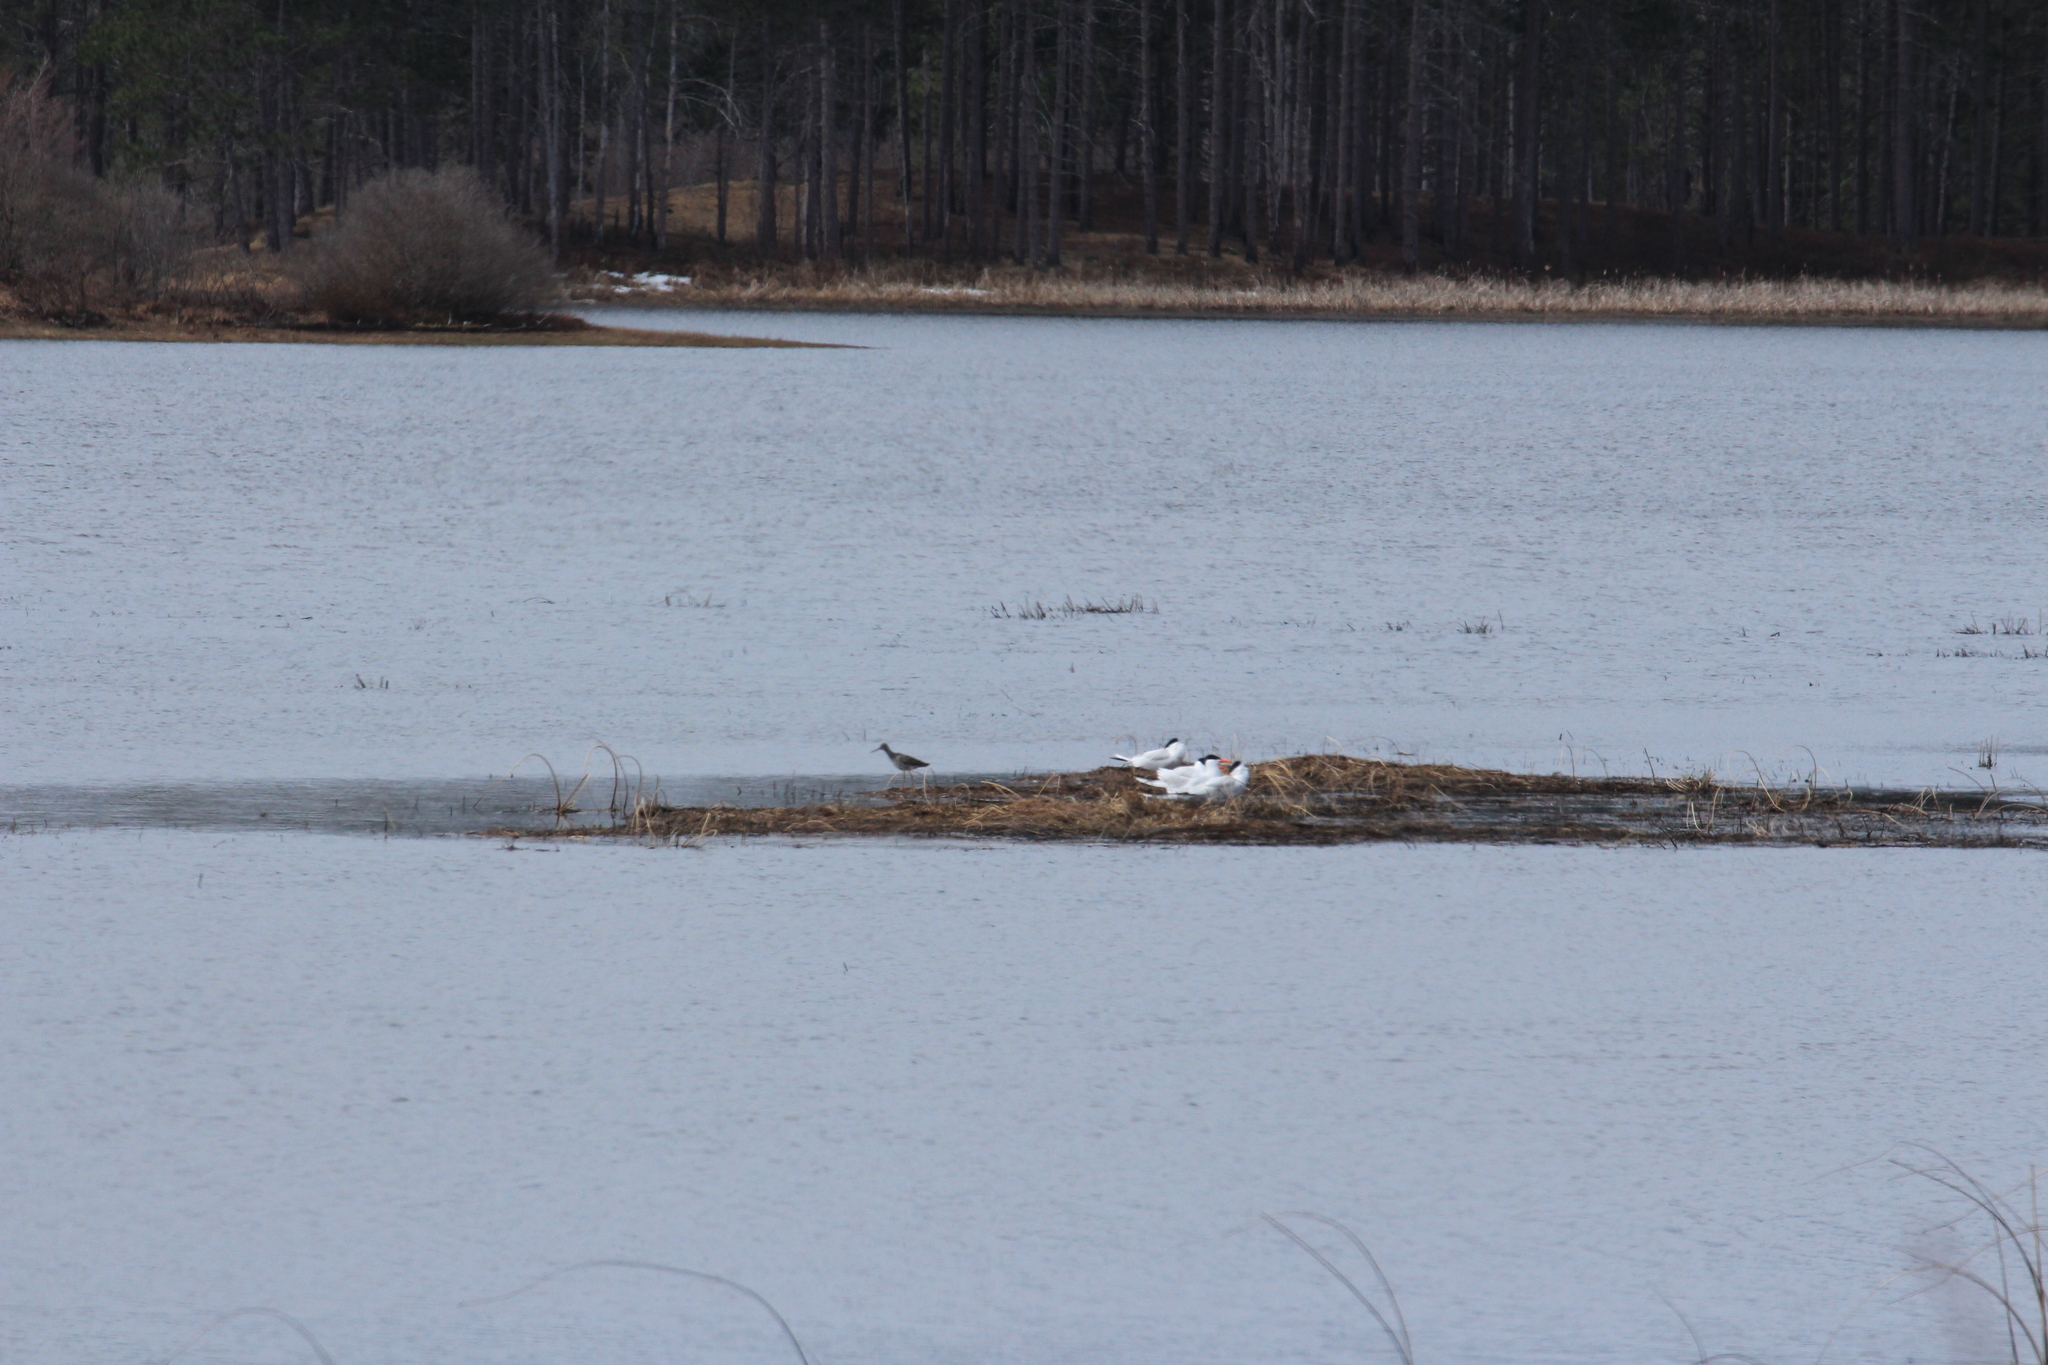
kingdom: Animalia
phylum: Chordata
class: Aves
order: Charadriiformes
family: Laridae
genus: Hydroprogne
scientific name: Hydroprogne caspia
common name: Caspian tern
